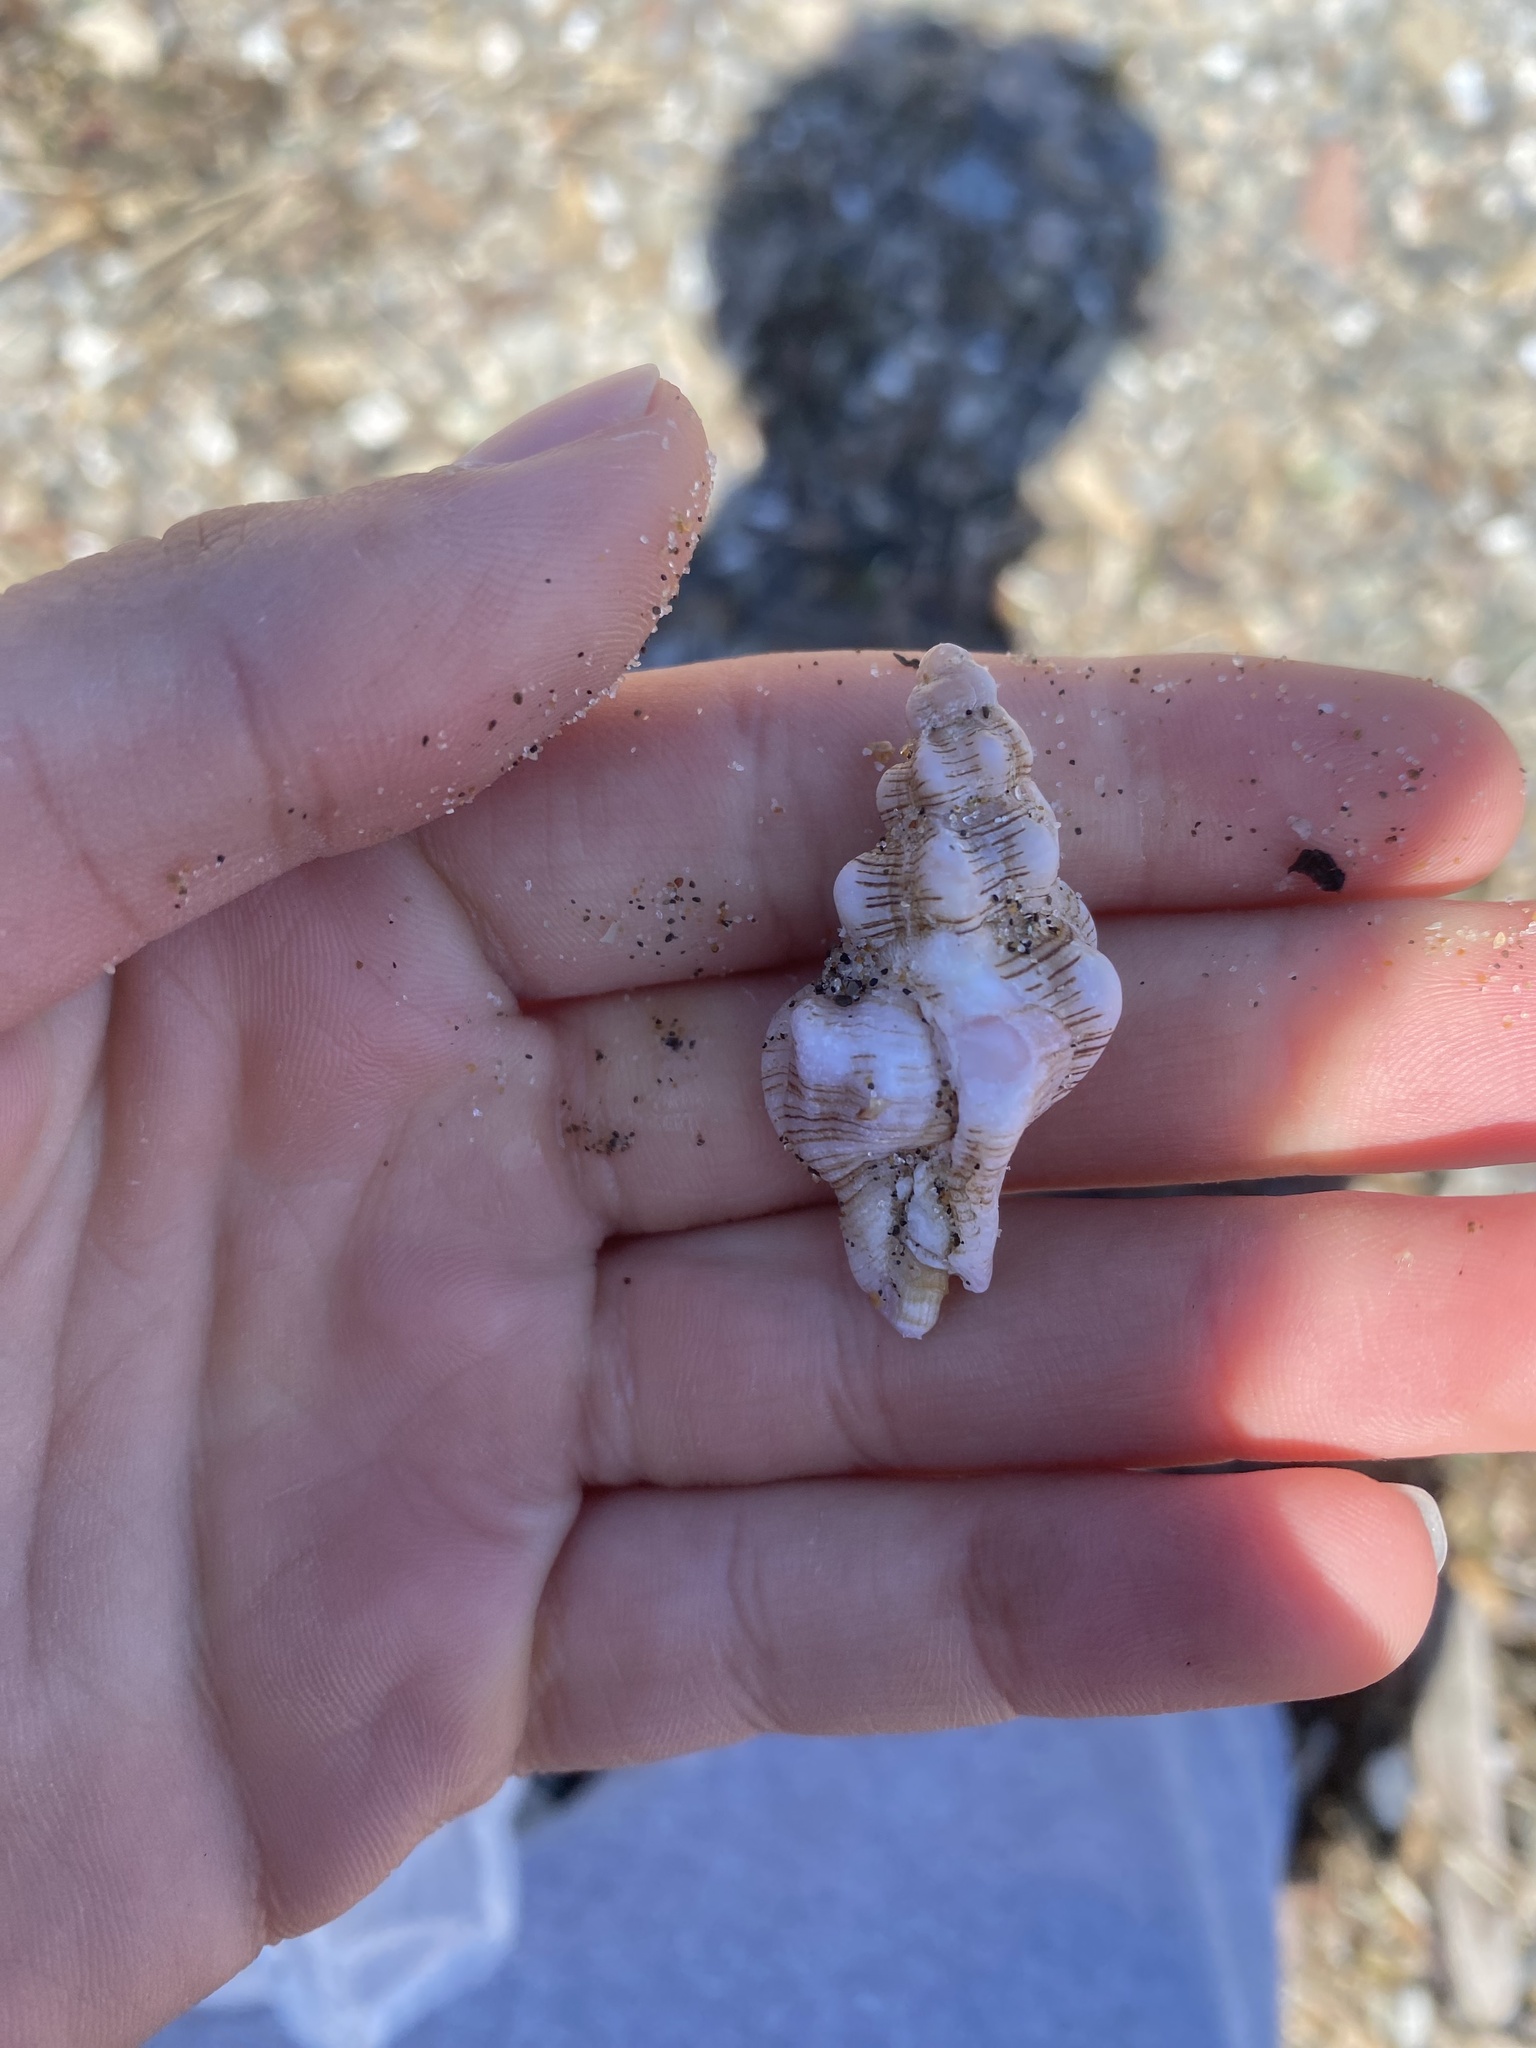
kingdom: Animalia
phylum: Mollusca
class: Gastropoda
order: Neogastropoda
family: Fasciolariidae
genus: Harfordia
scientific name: Harfordia harfordii
